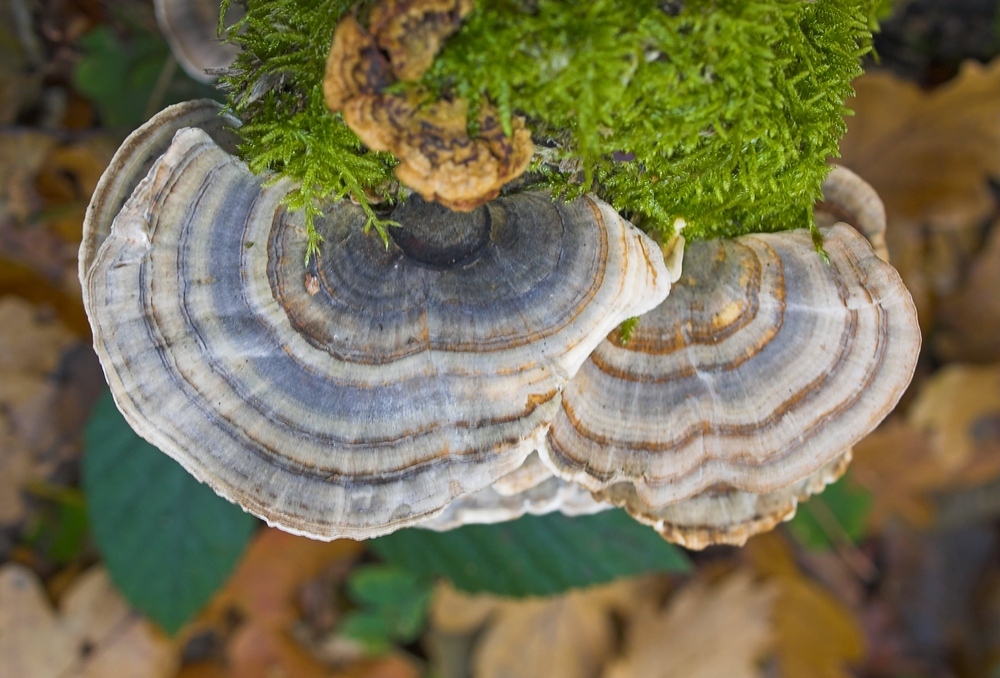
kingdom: Fungi
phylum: Basidiomycota
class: Agaricomycetes
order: Polyporales
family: Polyporaceae
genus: Trametes
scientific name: Trametes versicolor
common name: Turkeytail
